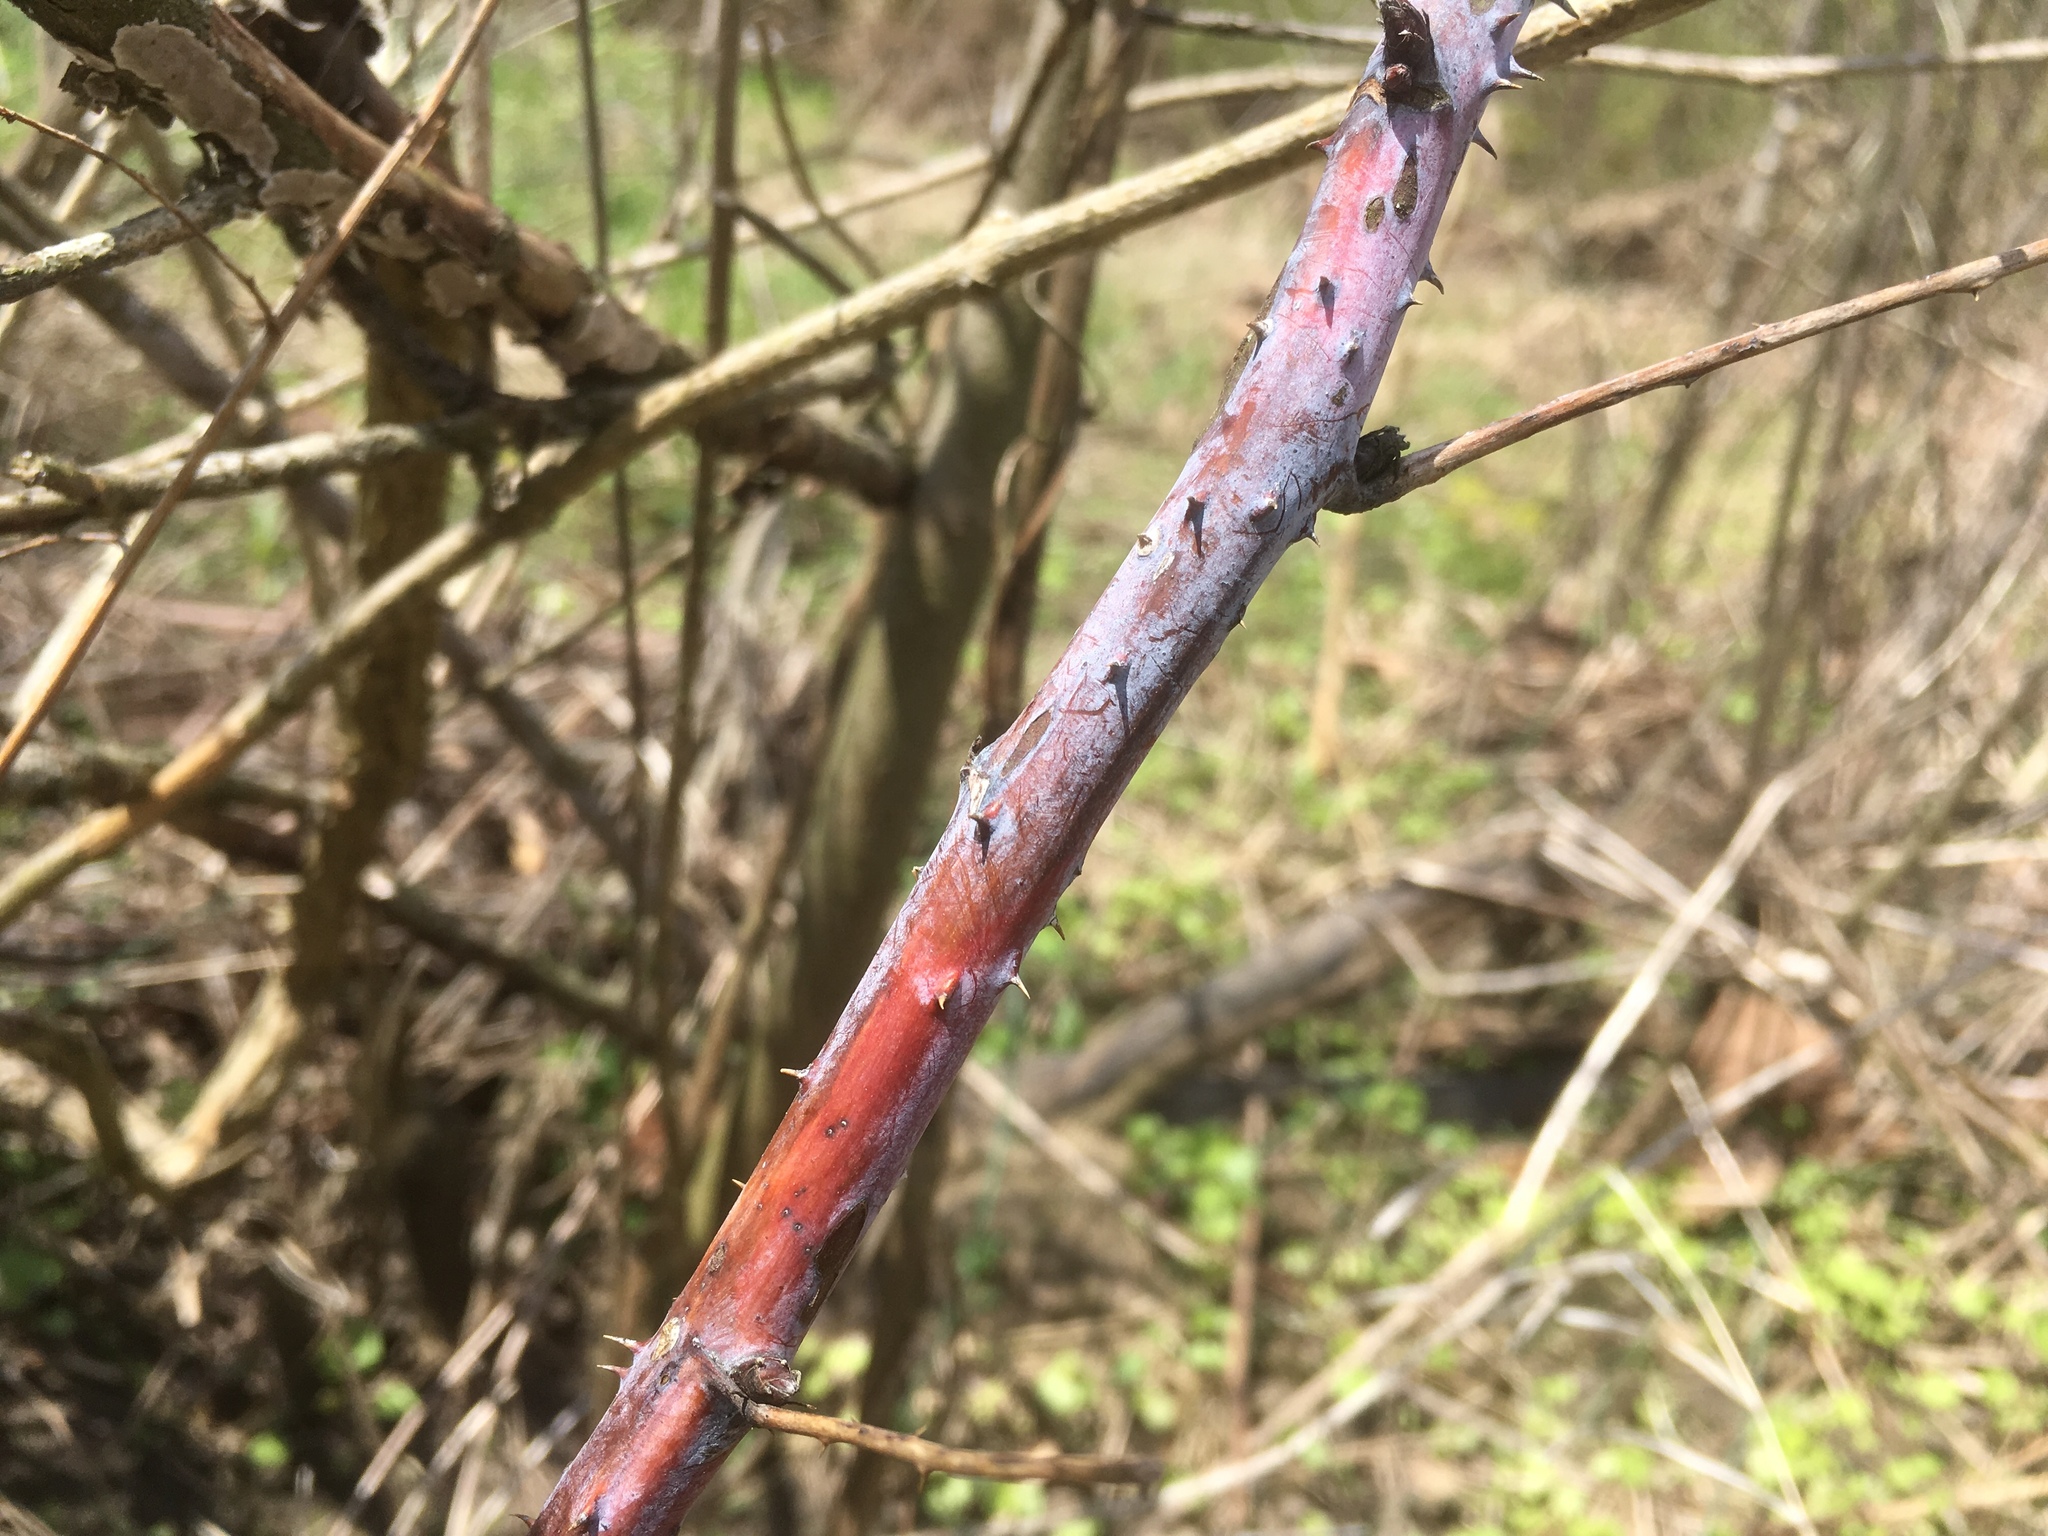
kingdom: Plantae
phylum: Tracheophyta
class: Magnoliopsida
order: Rosales
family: Rosaceae
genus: Rubus
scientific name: Rubus occidentalis
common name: Black raspberry
